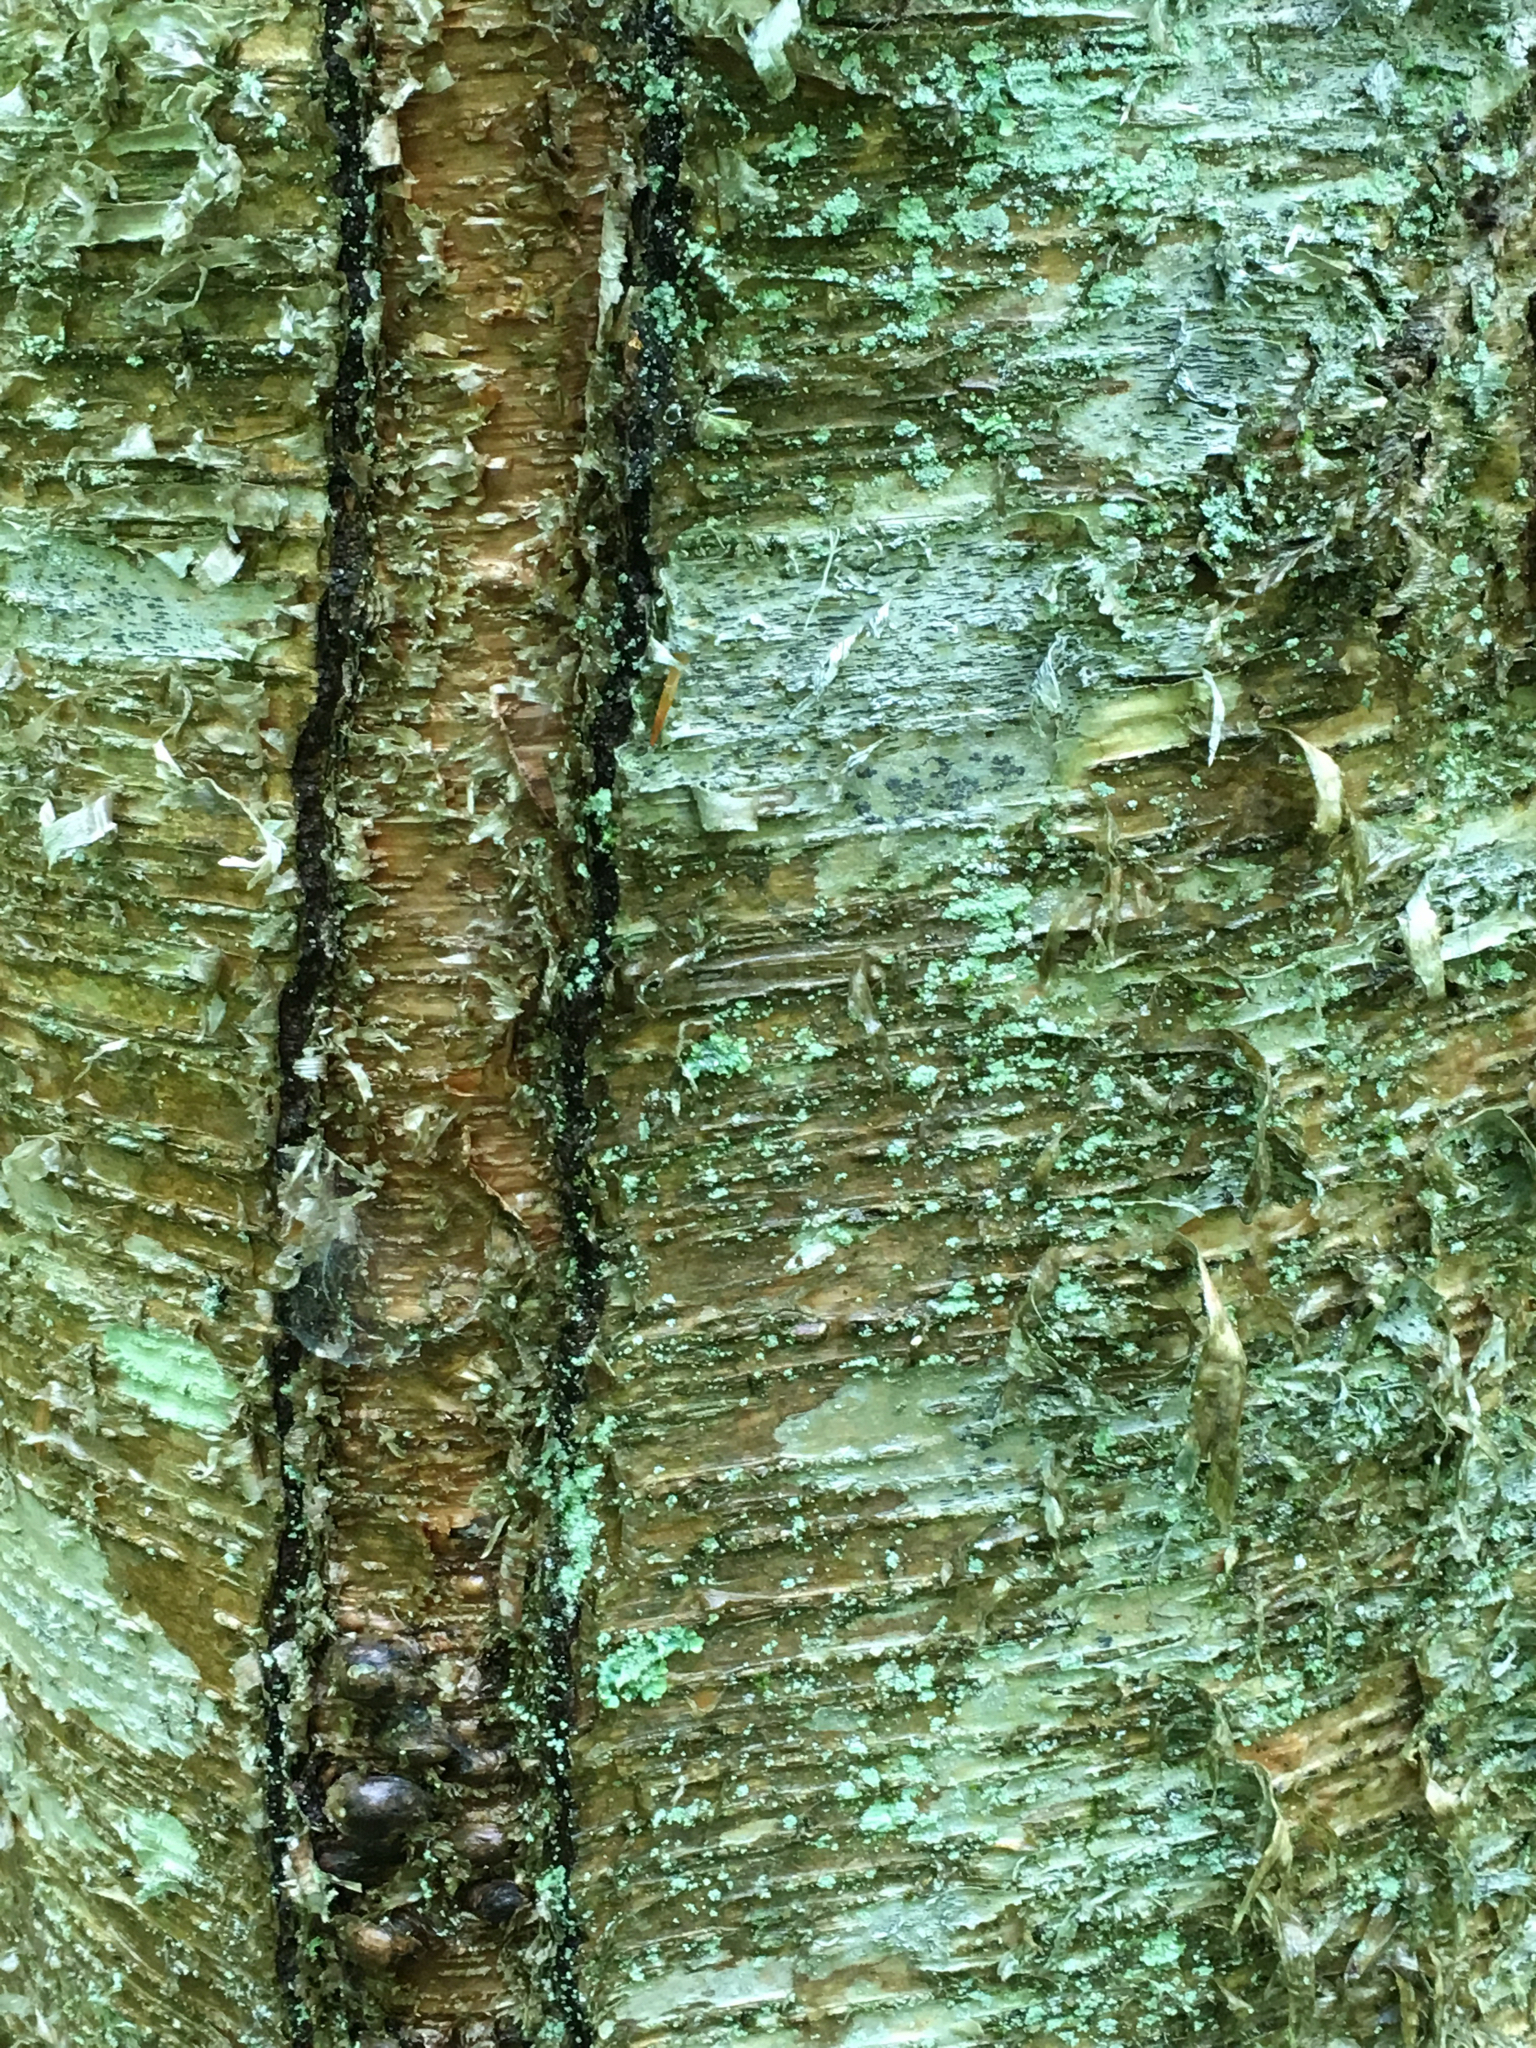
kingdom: Plantae
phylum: Tracheophyta
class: Magnoliopsida
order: Fagales
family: Betulaceae
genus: Betula
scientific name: Betula alleghaniensis
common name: Yellow birch
